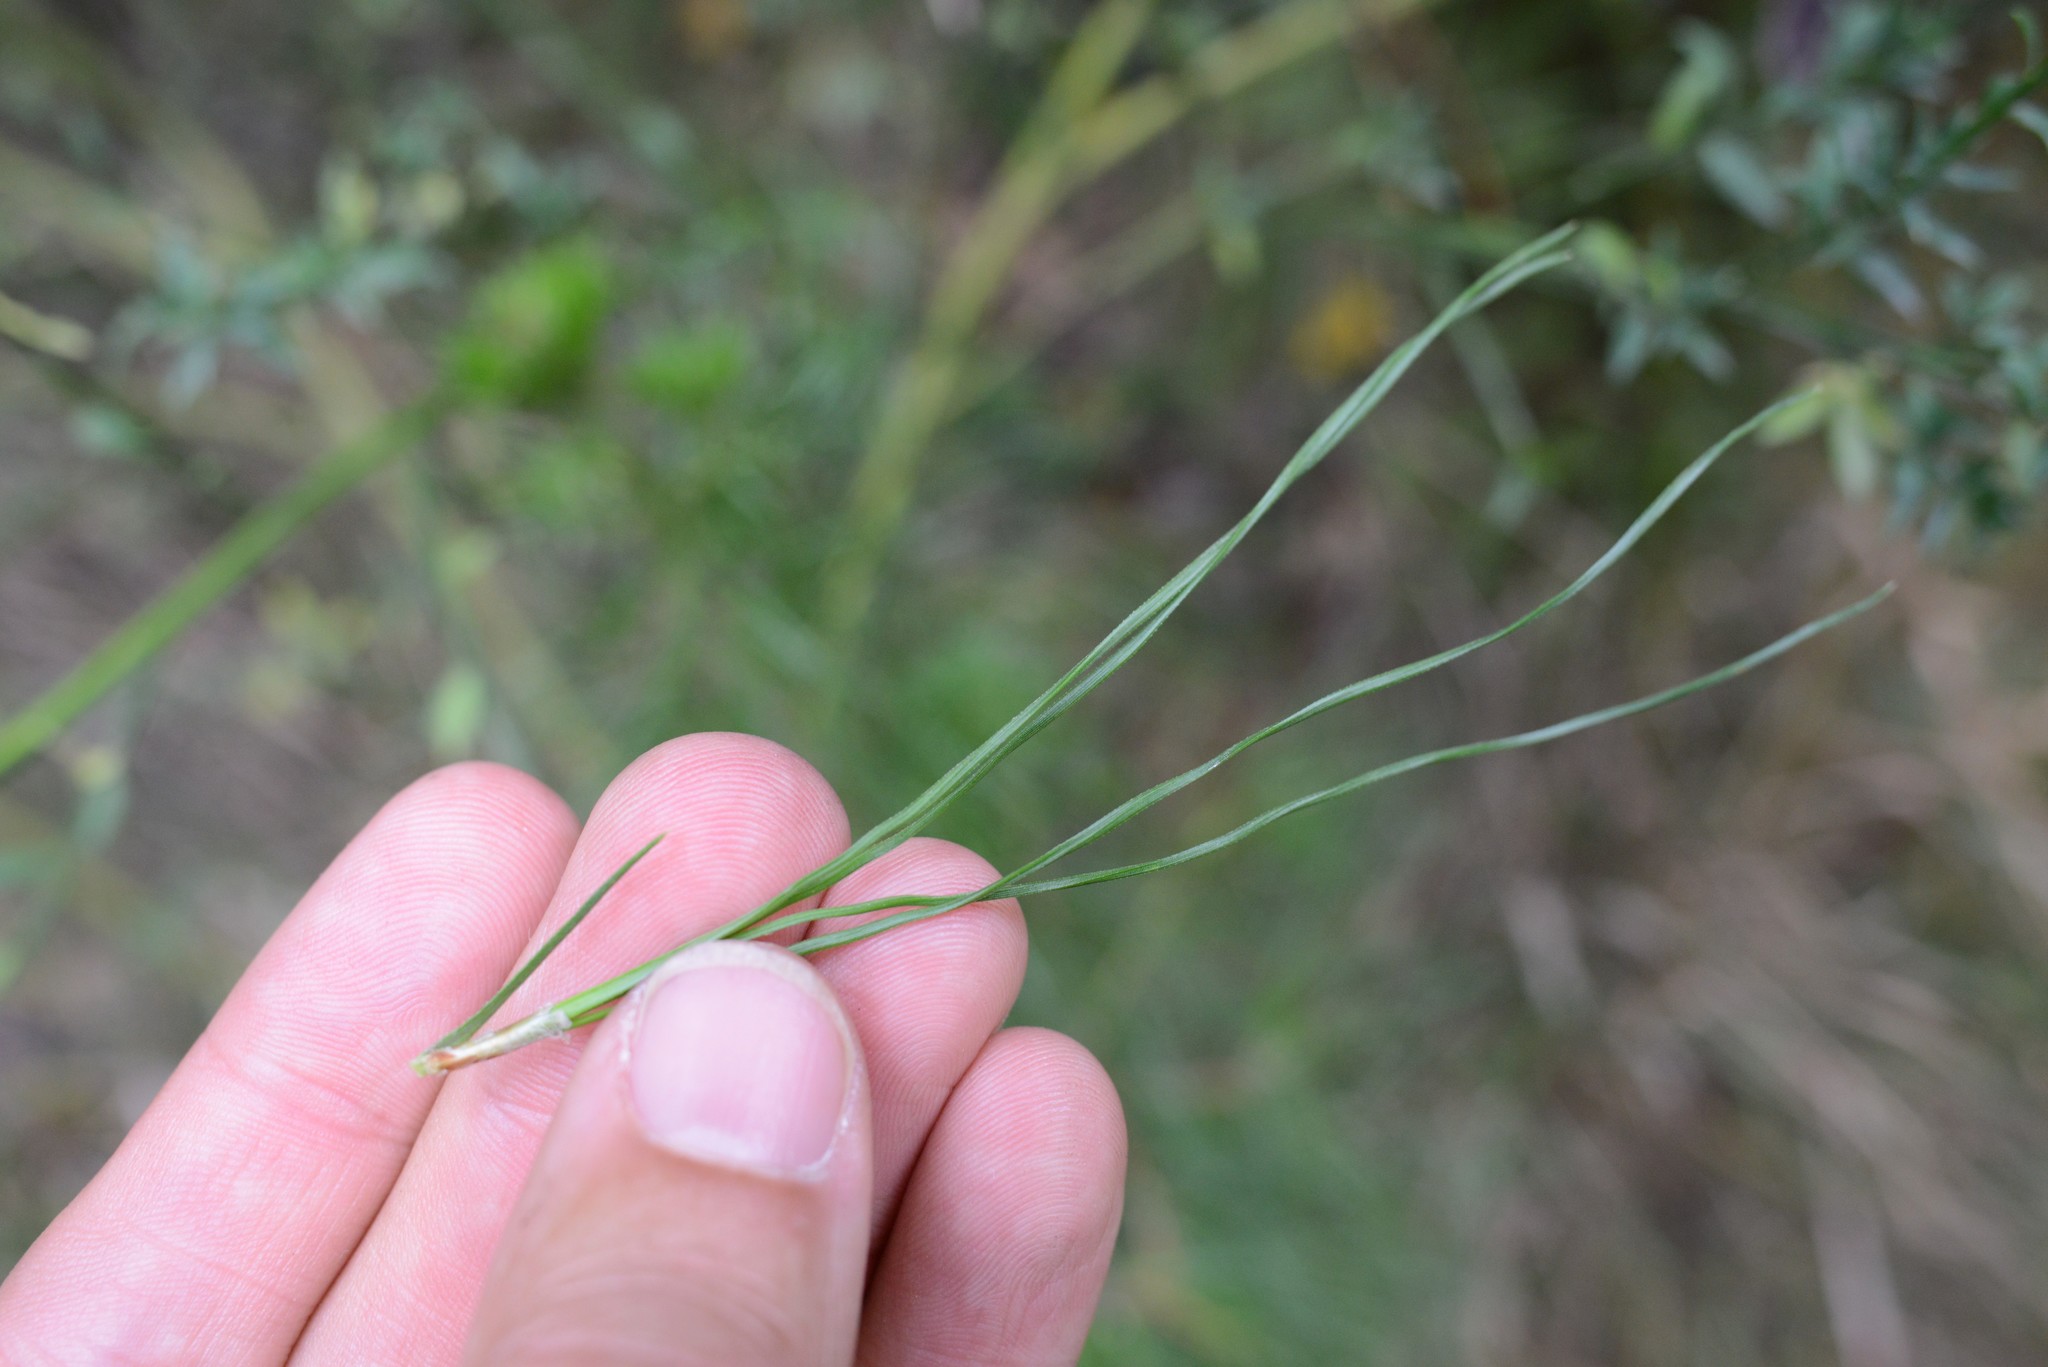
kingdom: Plantae
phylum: Tracheophyta
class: Pinopsida
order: Pinales
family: Pinaceae
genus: Pinus
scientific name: Pinus radiata
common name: Monterey pine
